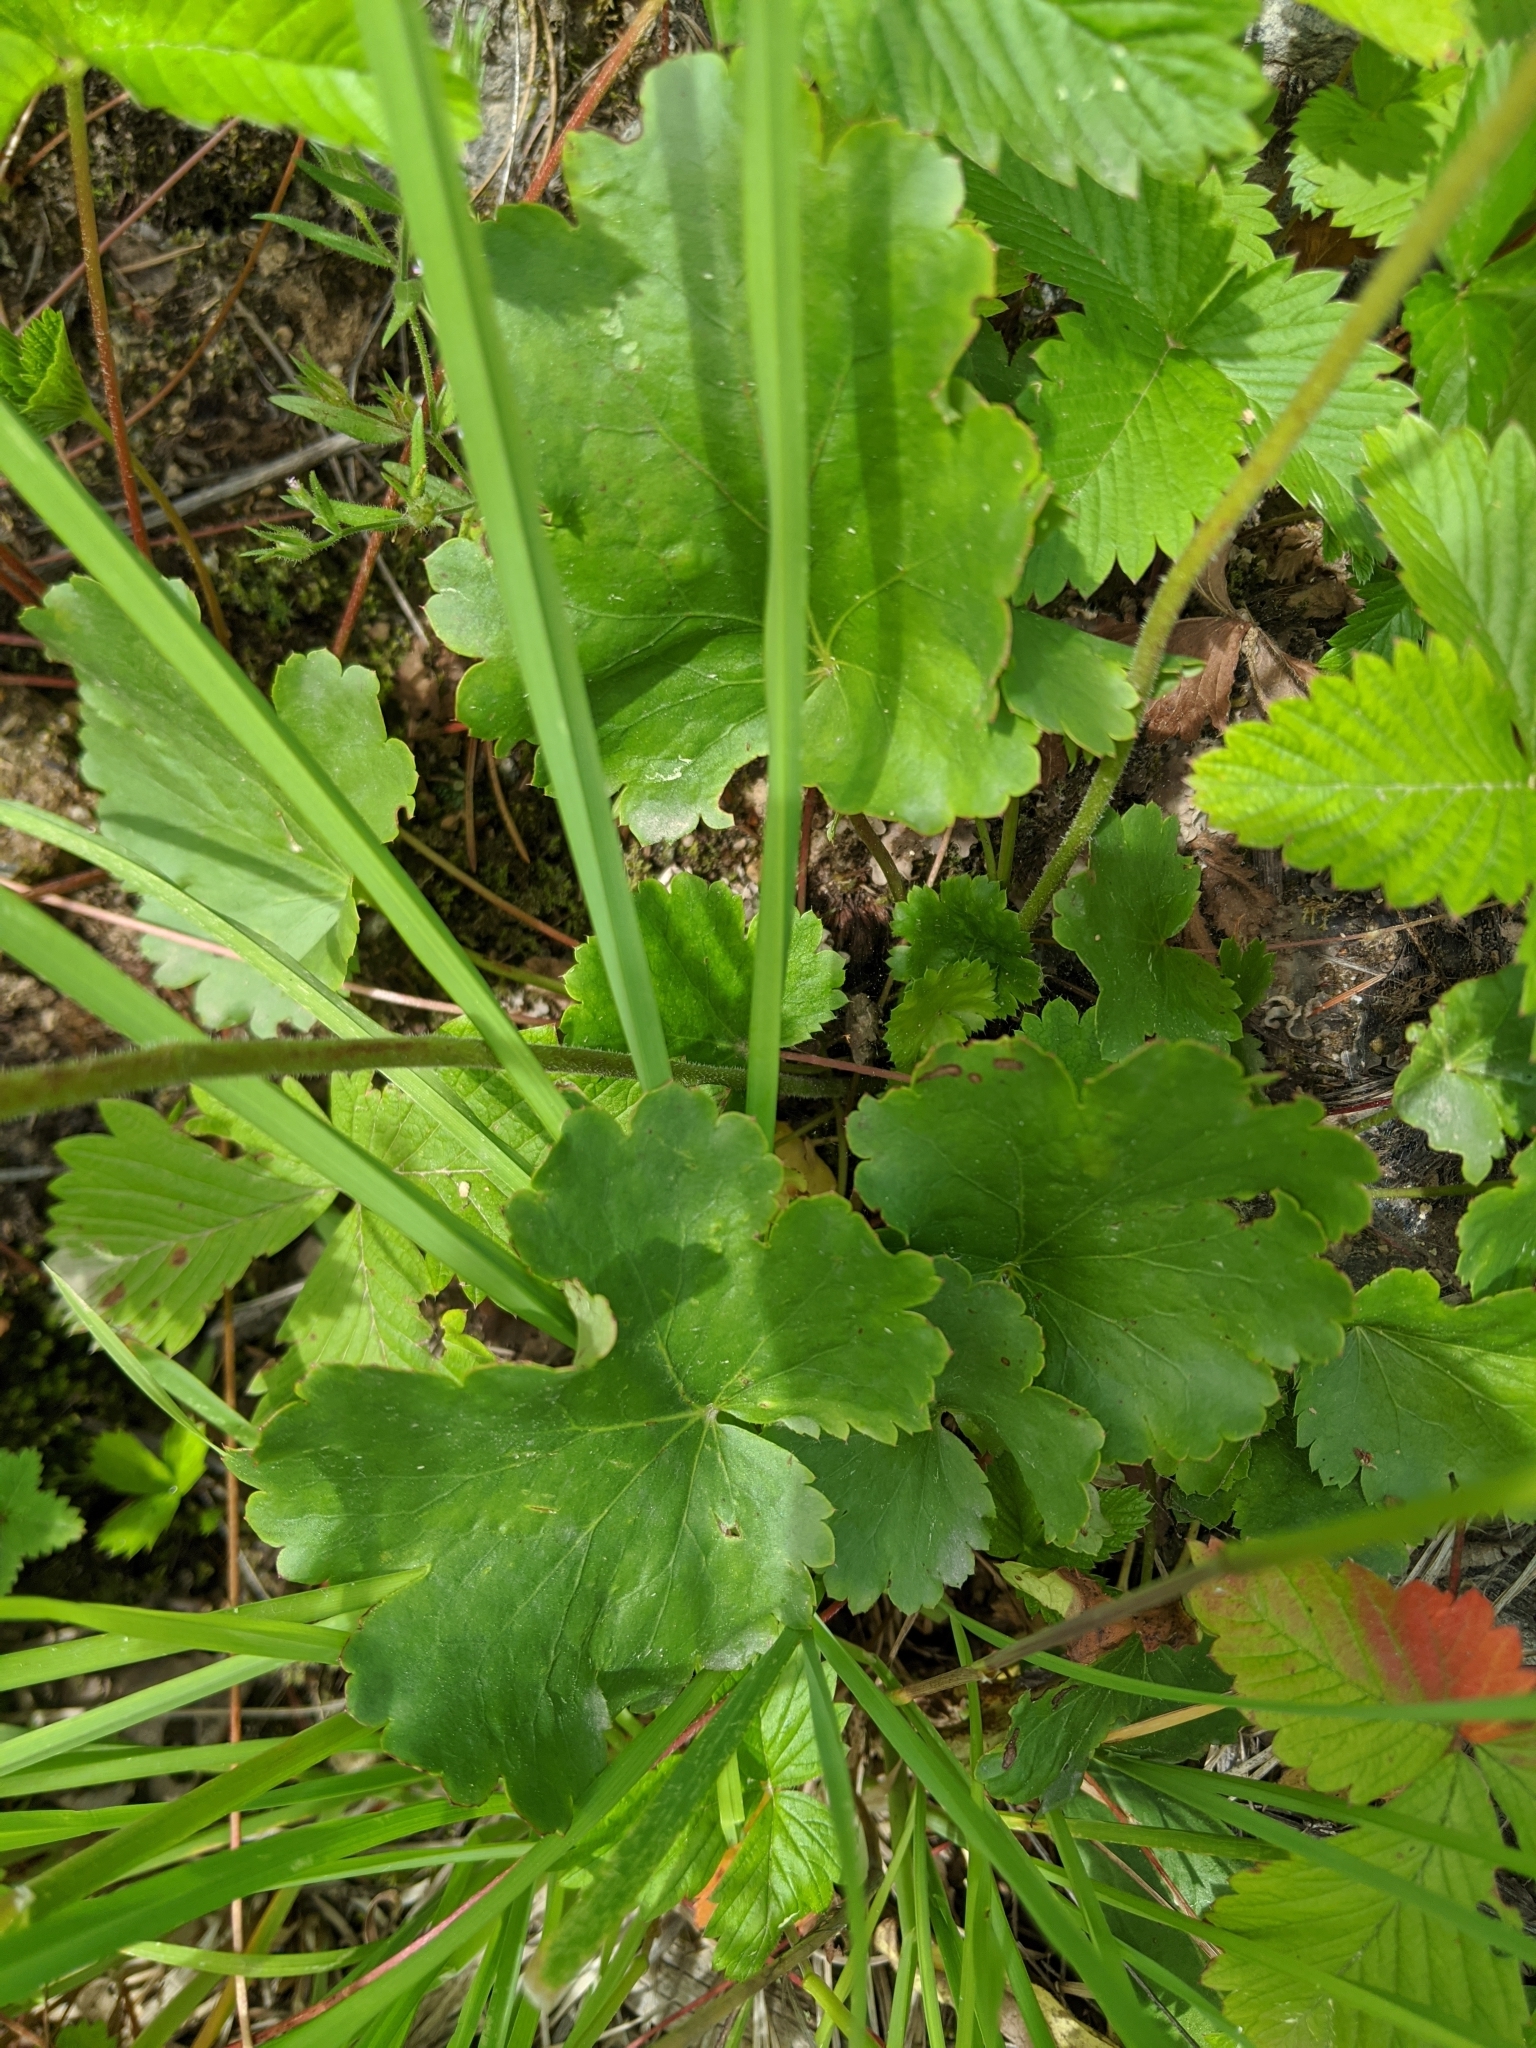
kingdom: Plantae
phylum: Tracheophyta
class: Magnoliopsida
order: Saxifragales
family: Saxifragaceae
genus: Heuchera
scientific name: Heuchera cylindrica
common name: Mat alumroot
